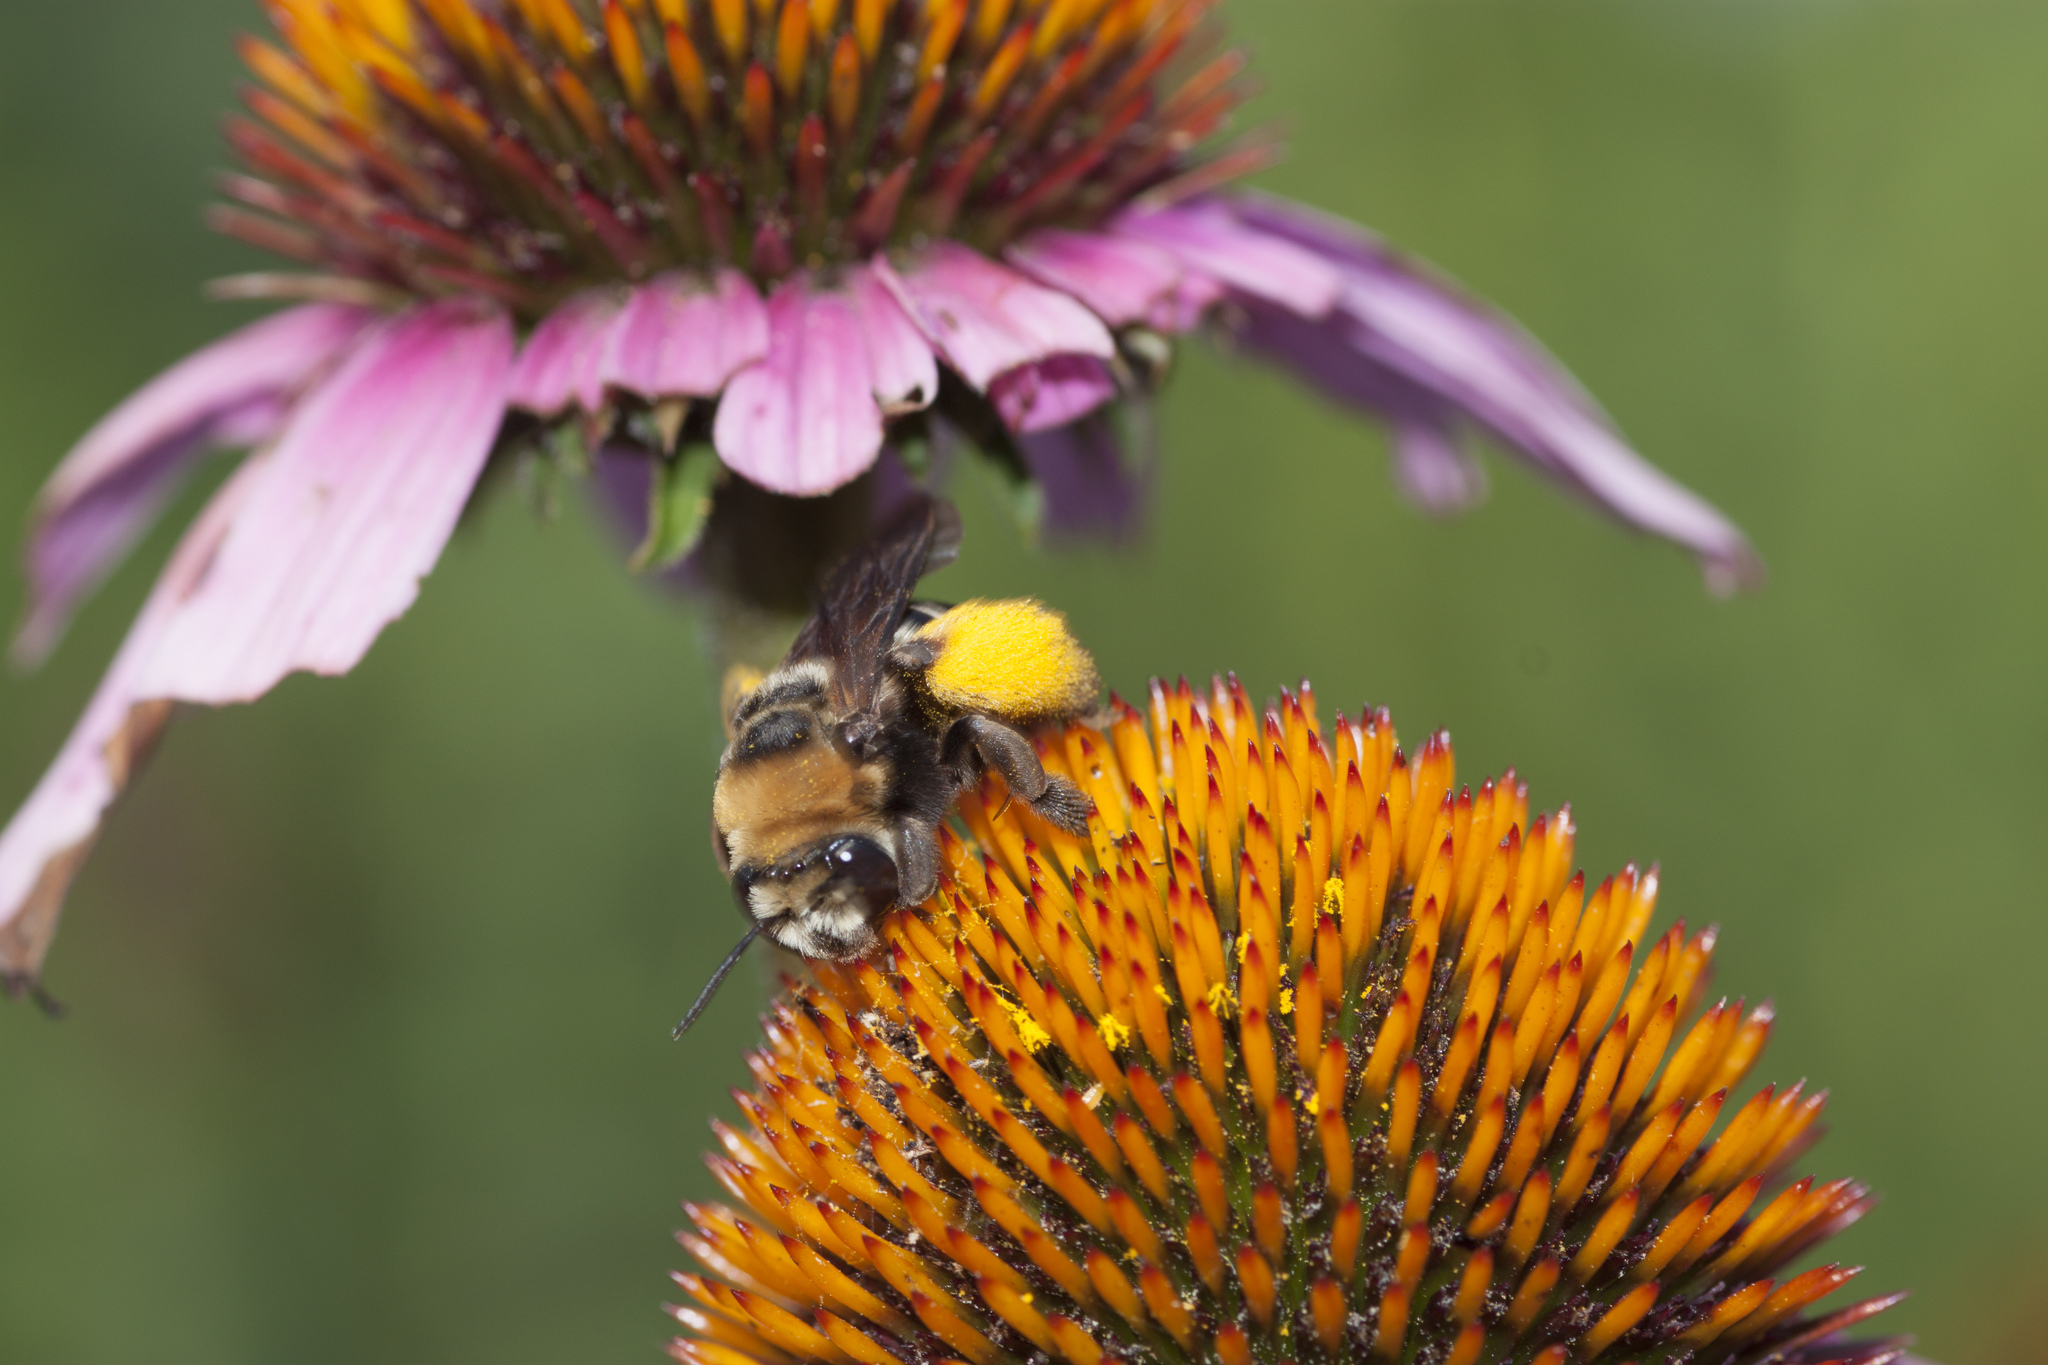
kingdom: Animalia
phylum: Arthropoda
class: Insecta
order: Hymenoptera
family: Apidae
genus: Svastra
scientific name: Svastra obliqua
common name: Oblique longhorn
